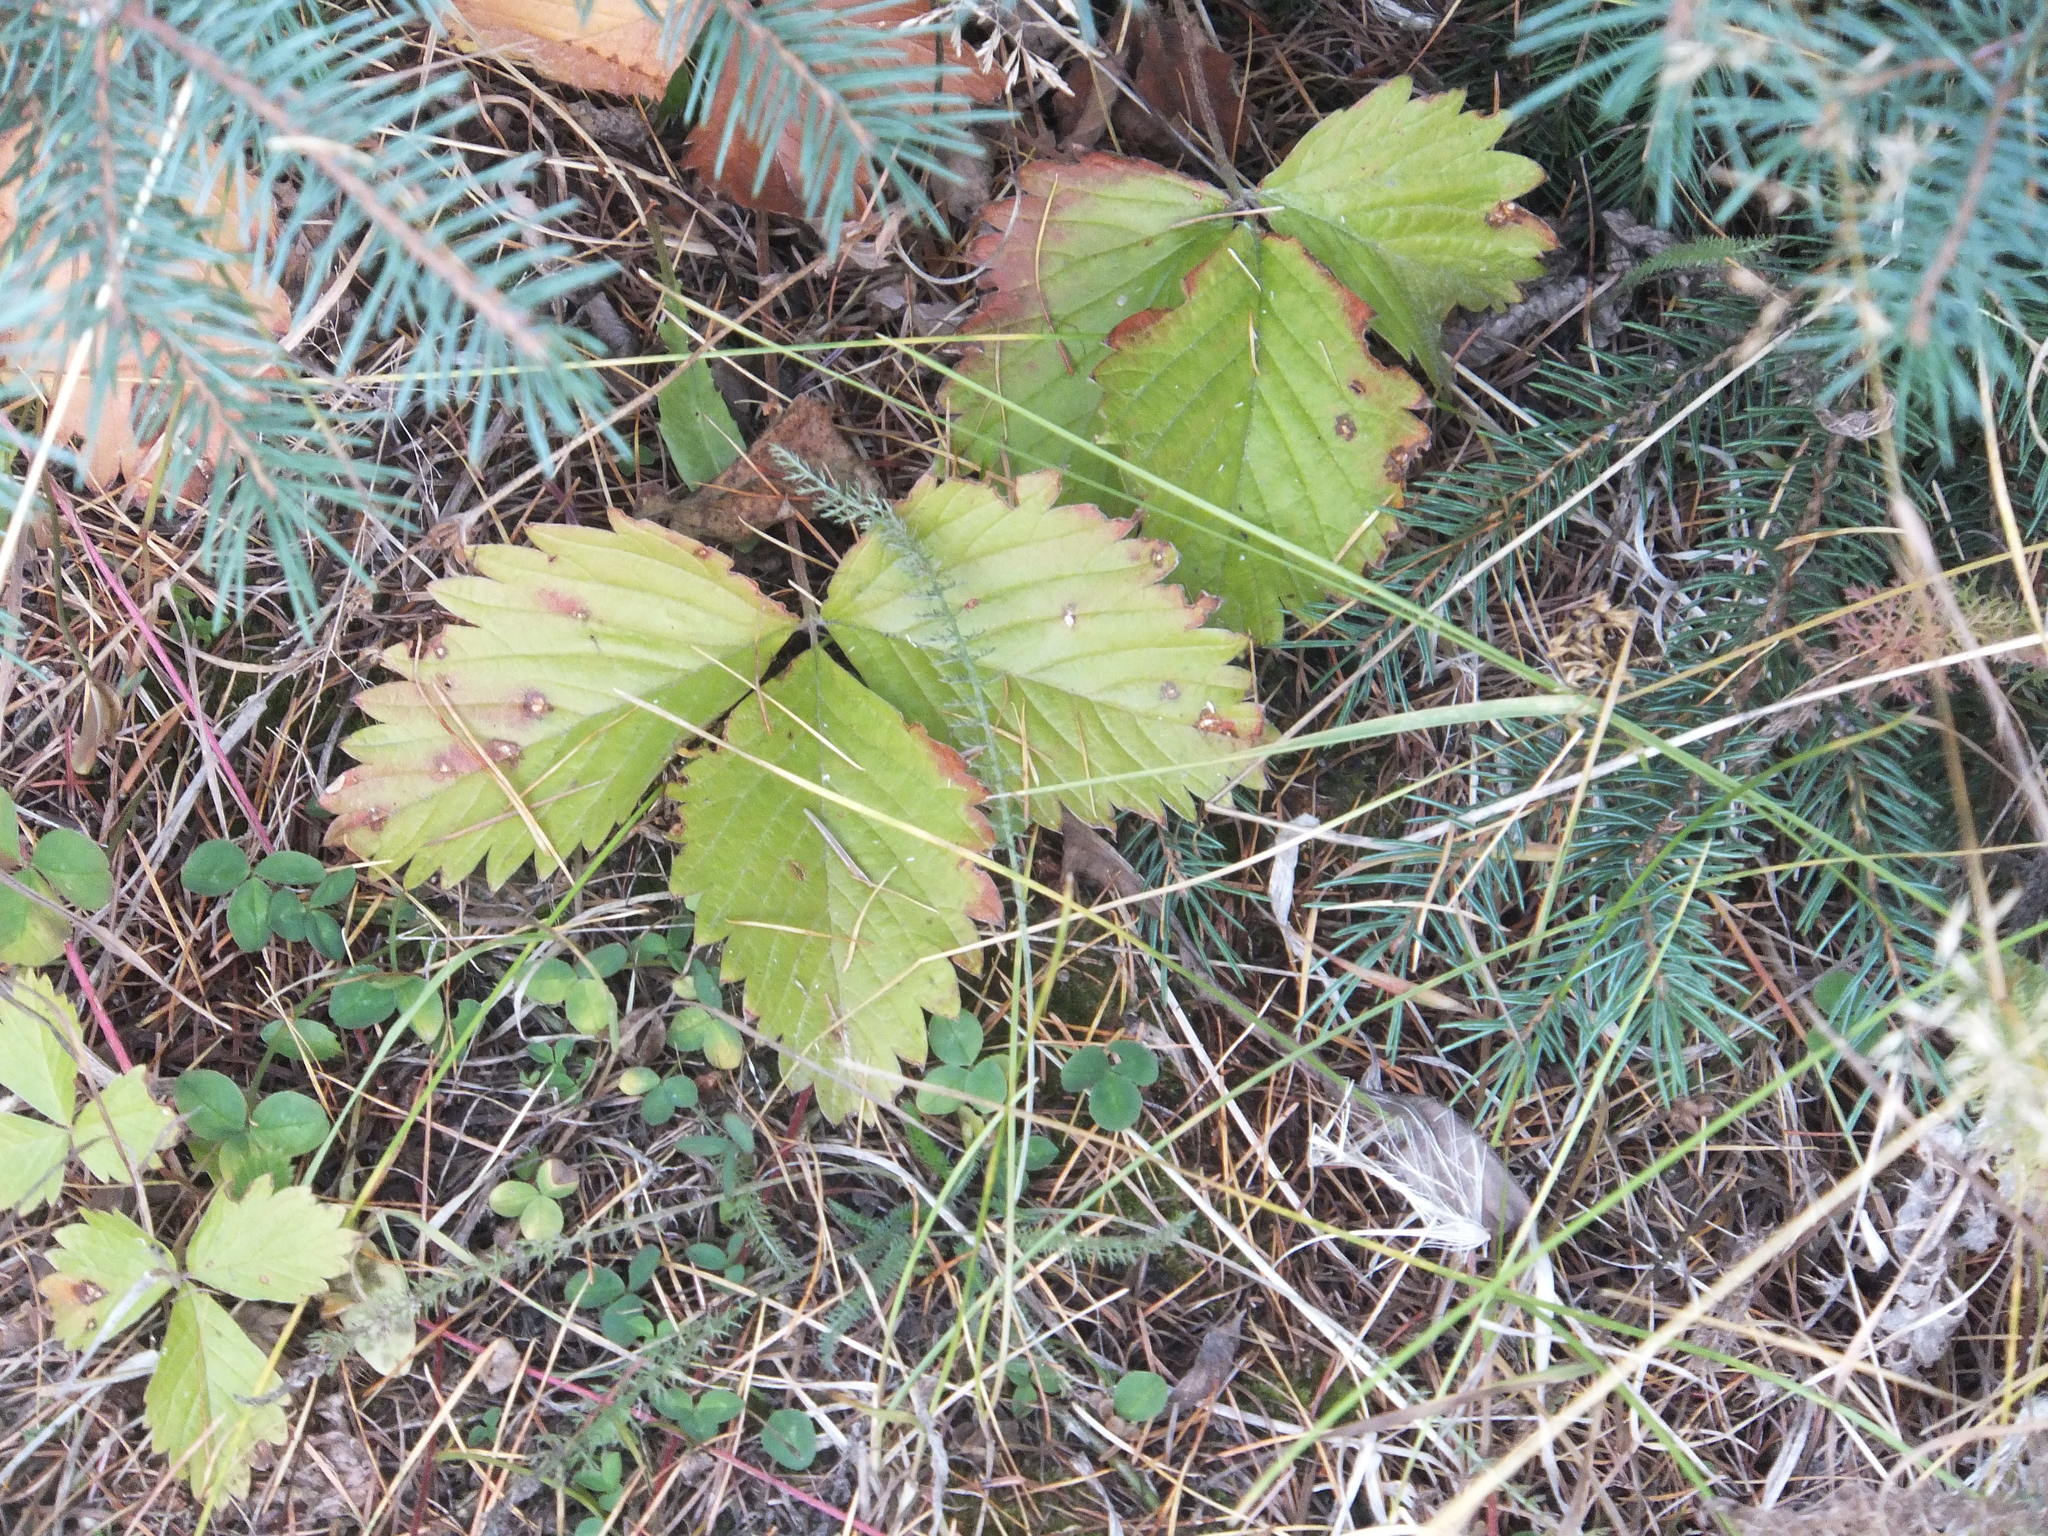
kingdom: Plantae
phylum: Tracheophyta
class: Magnoliopsida
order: Rosales
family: Rosaceae
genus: Fragaria
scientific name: Fragaria vesca
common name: Wild strawberry
